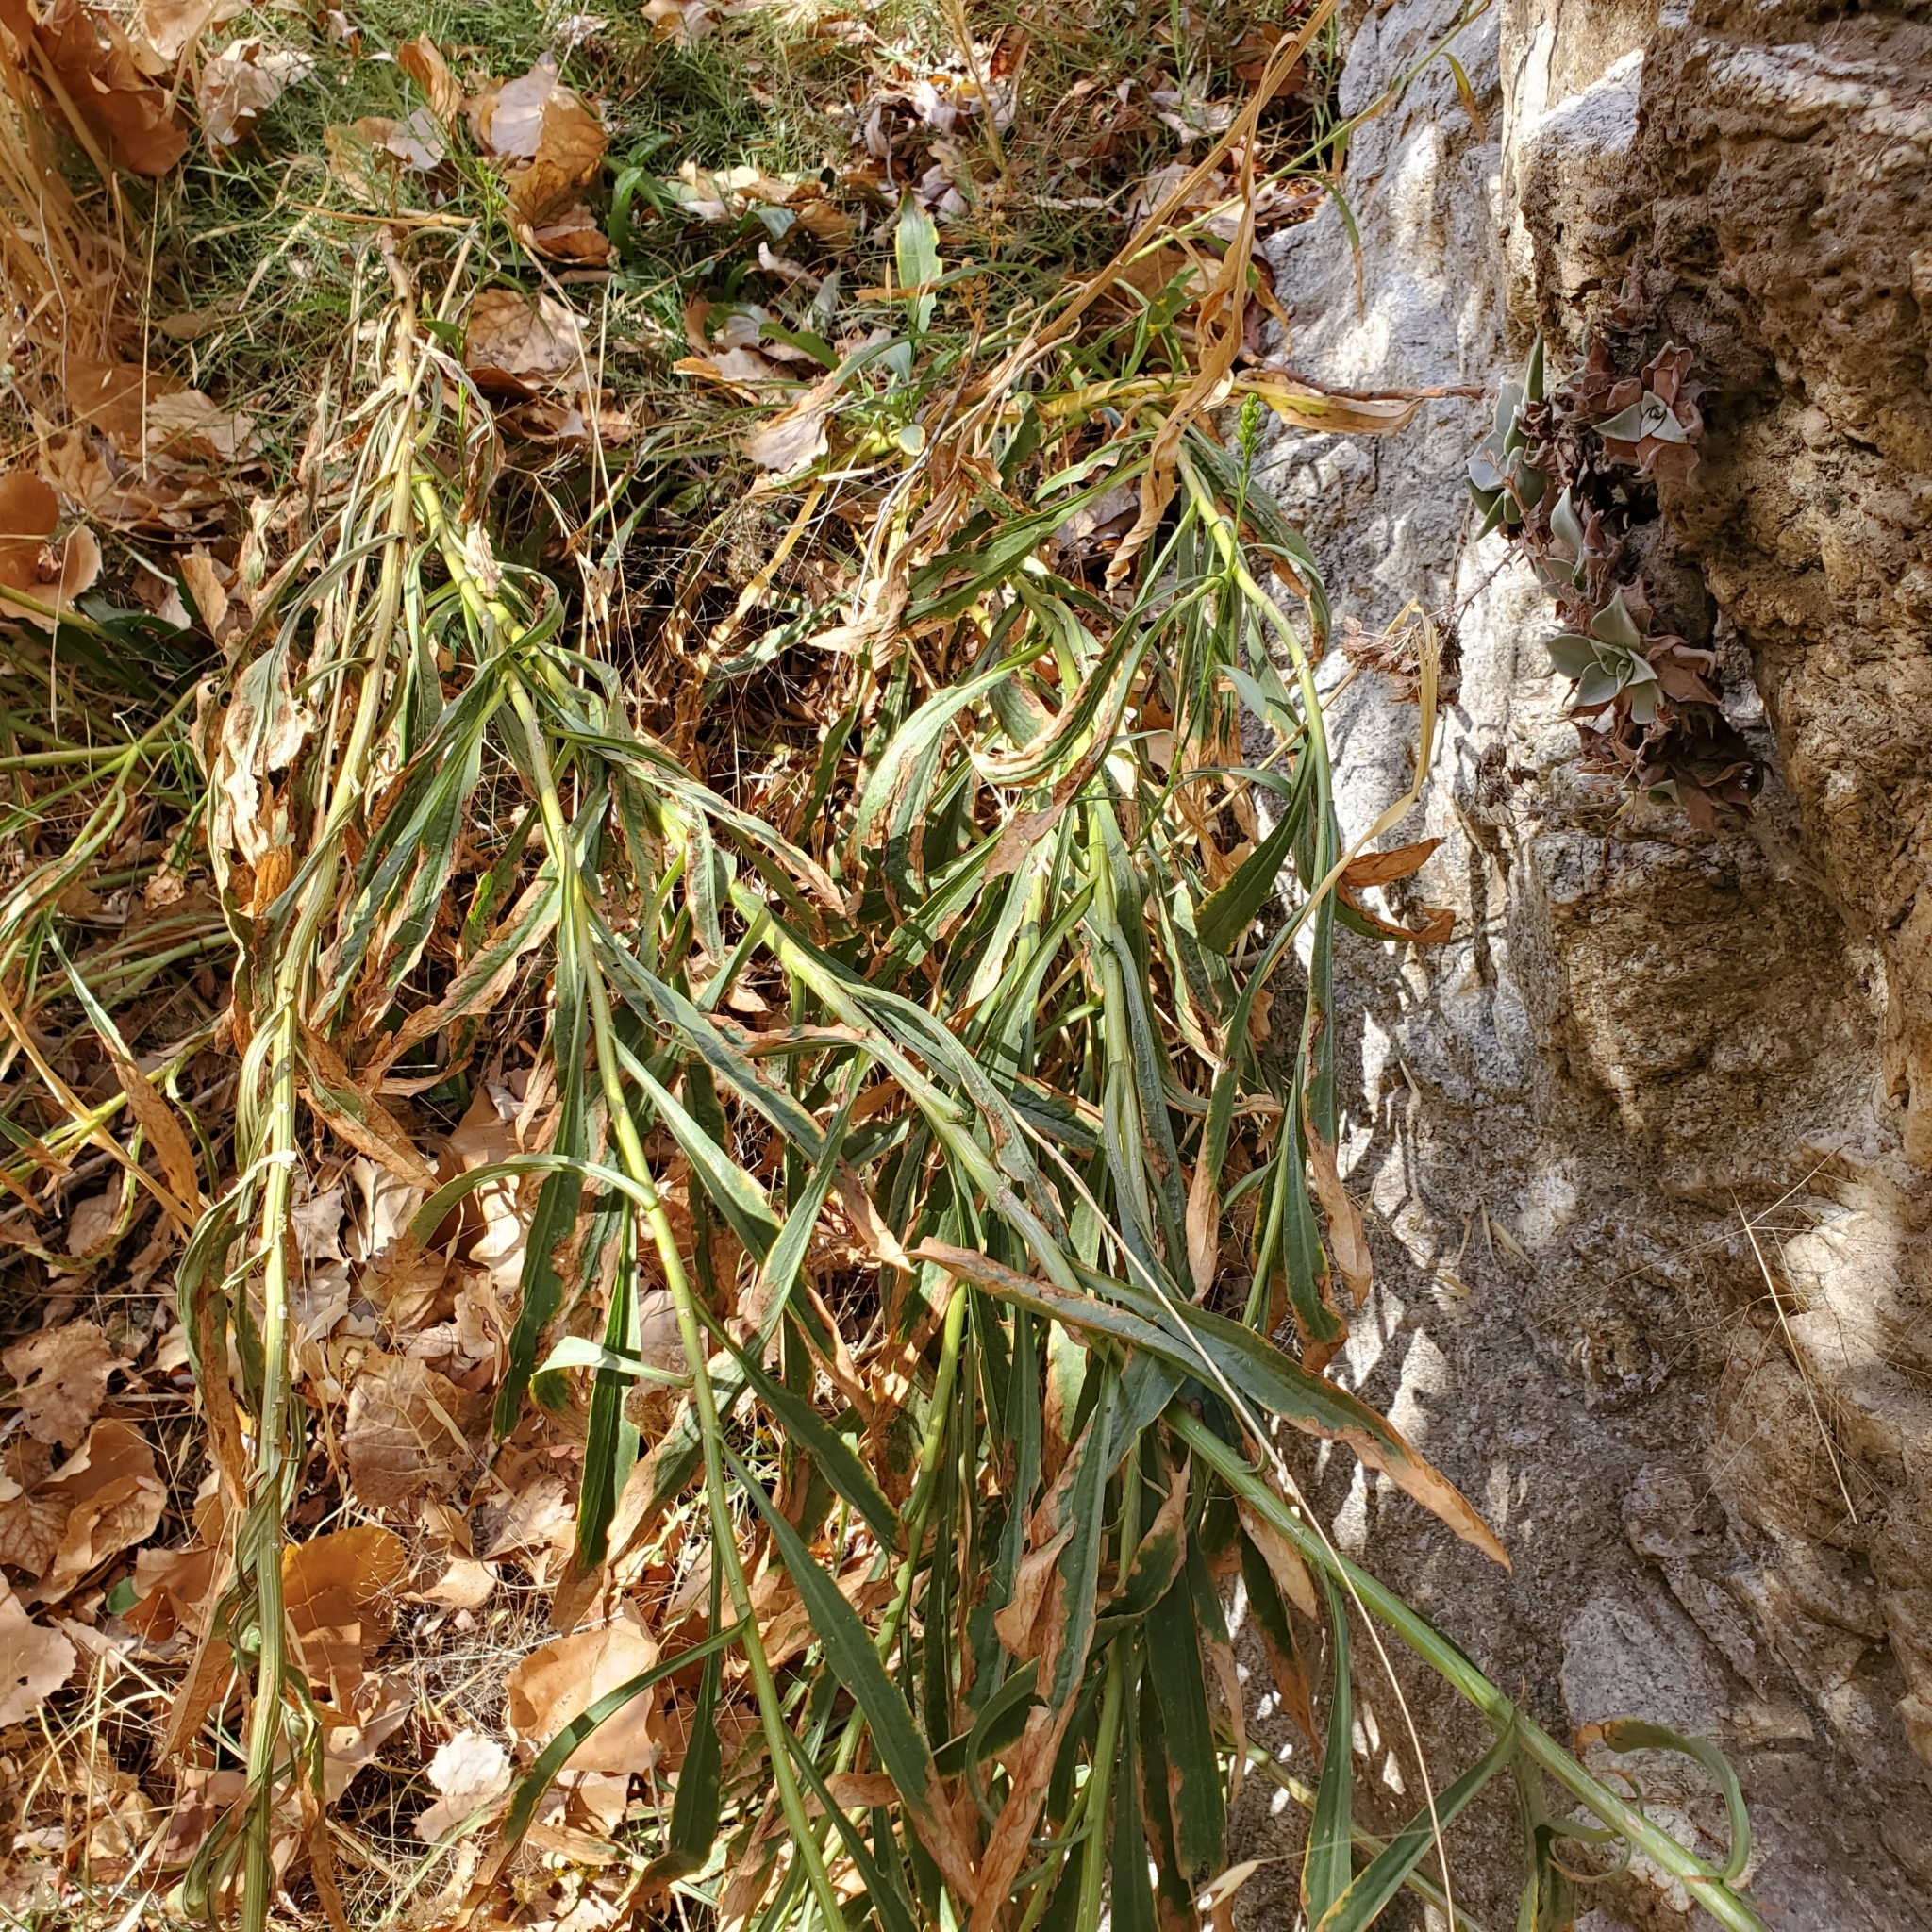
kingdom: Plantae
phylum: Tracheophyta
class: Magnoliopsida
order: Asterales
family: Asteraceae
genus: Euthamia
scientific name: Euthamia occidentalis
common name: Western goldentop
